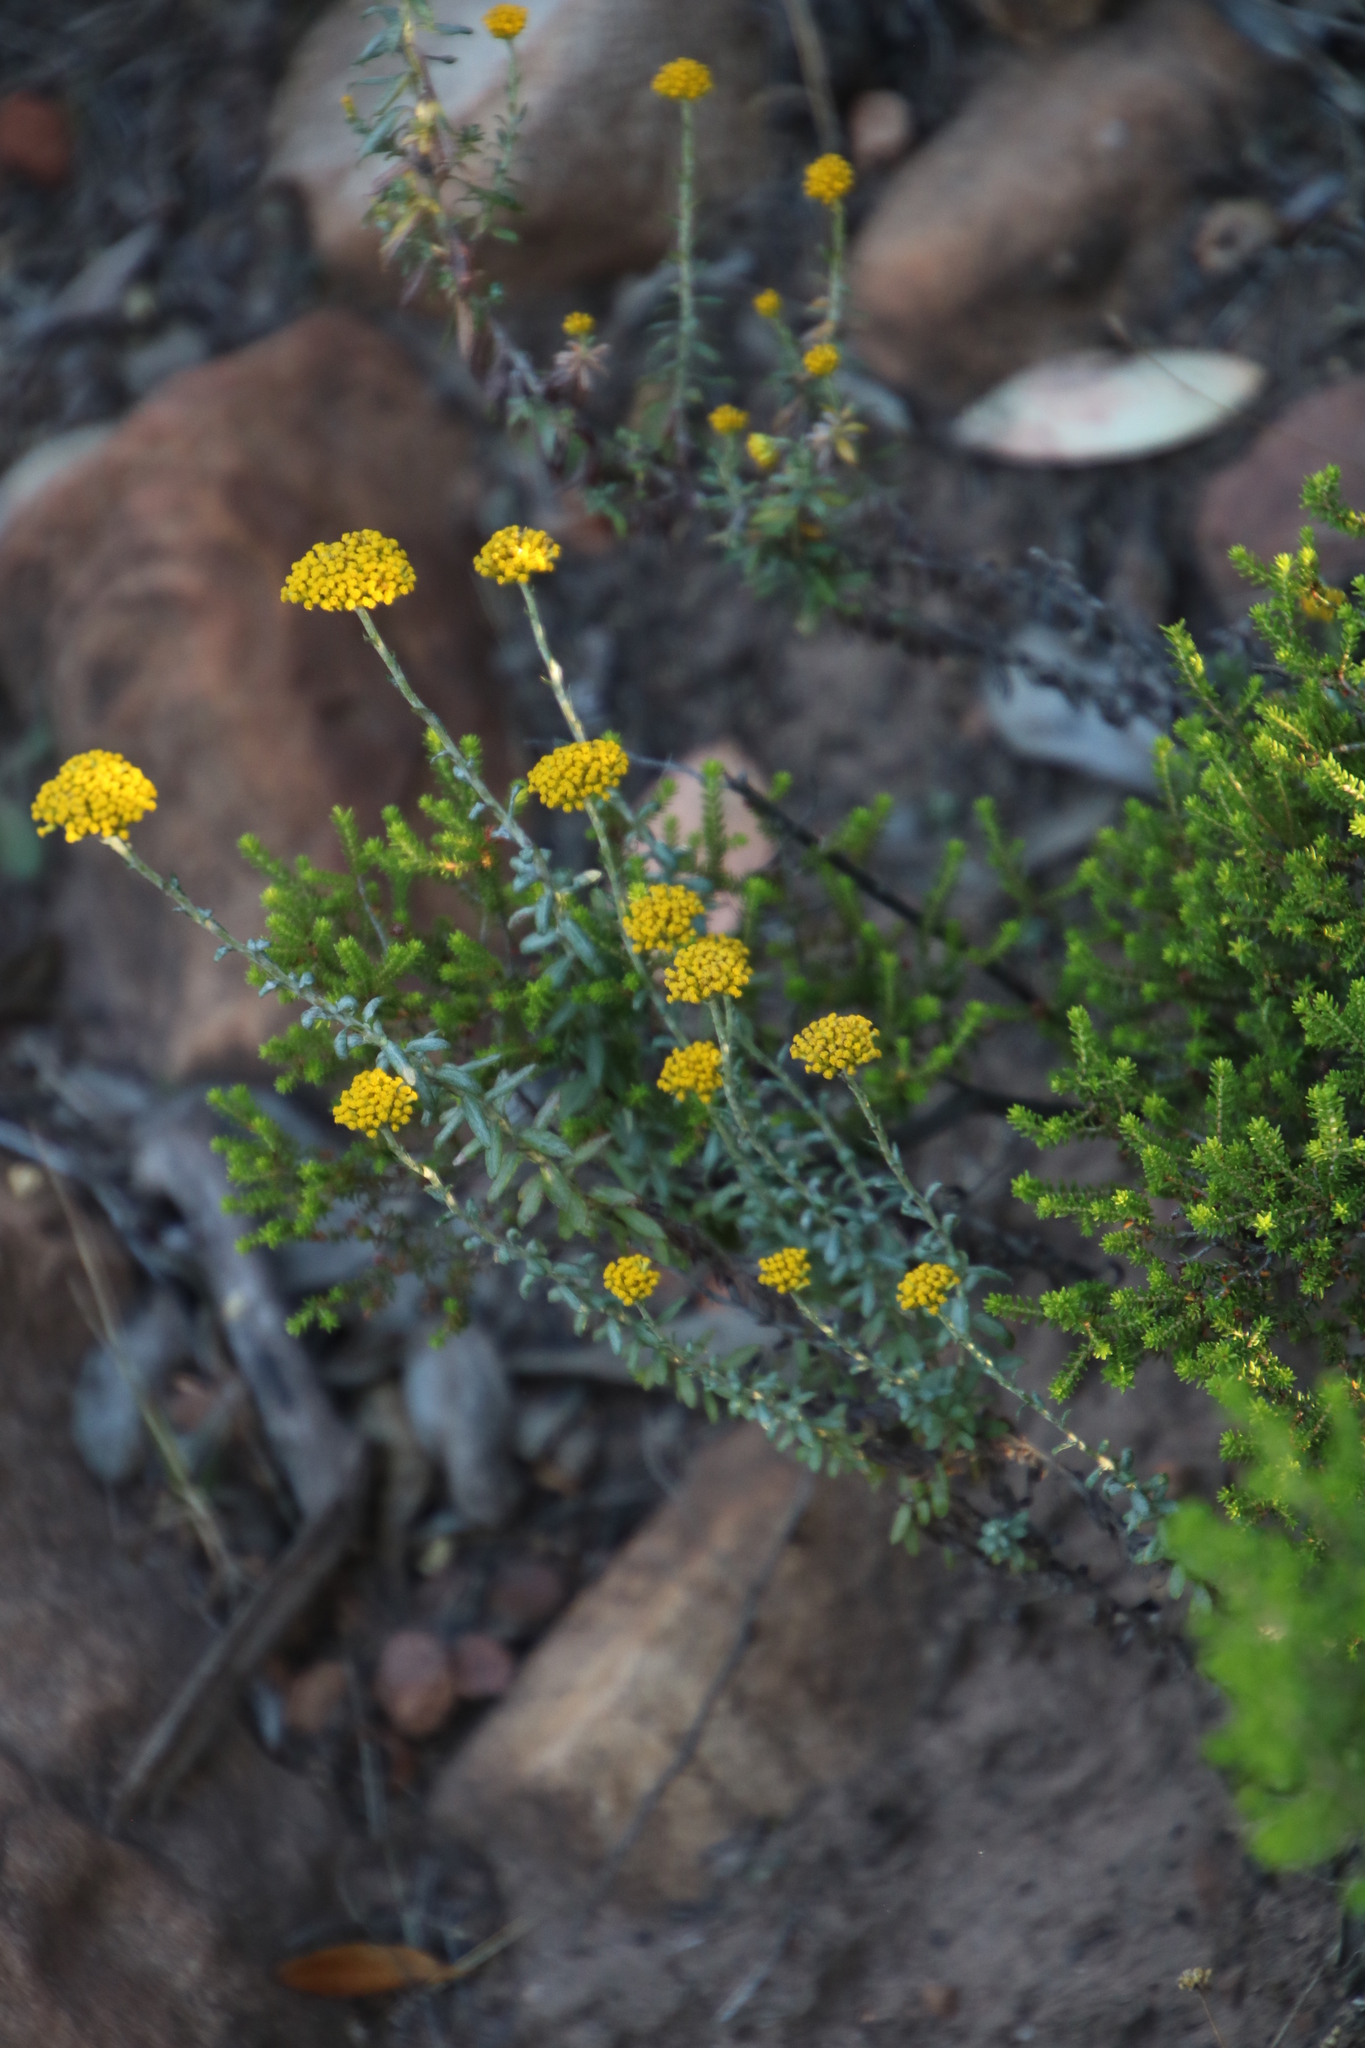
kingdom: Plantae
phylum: Tracheophyta
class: Magnoliopsida
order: Asterales
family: Asteraceae
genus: Helichrysum
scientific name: Helichrysum cymosum
